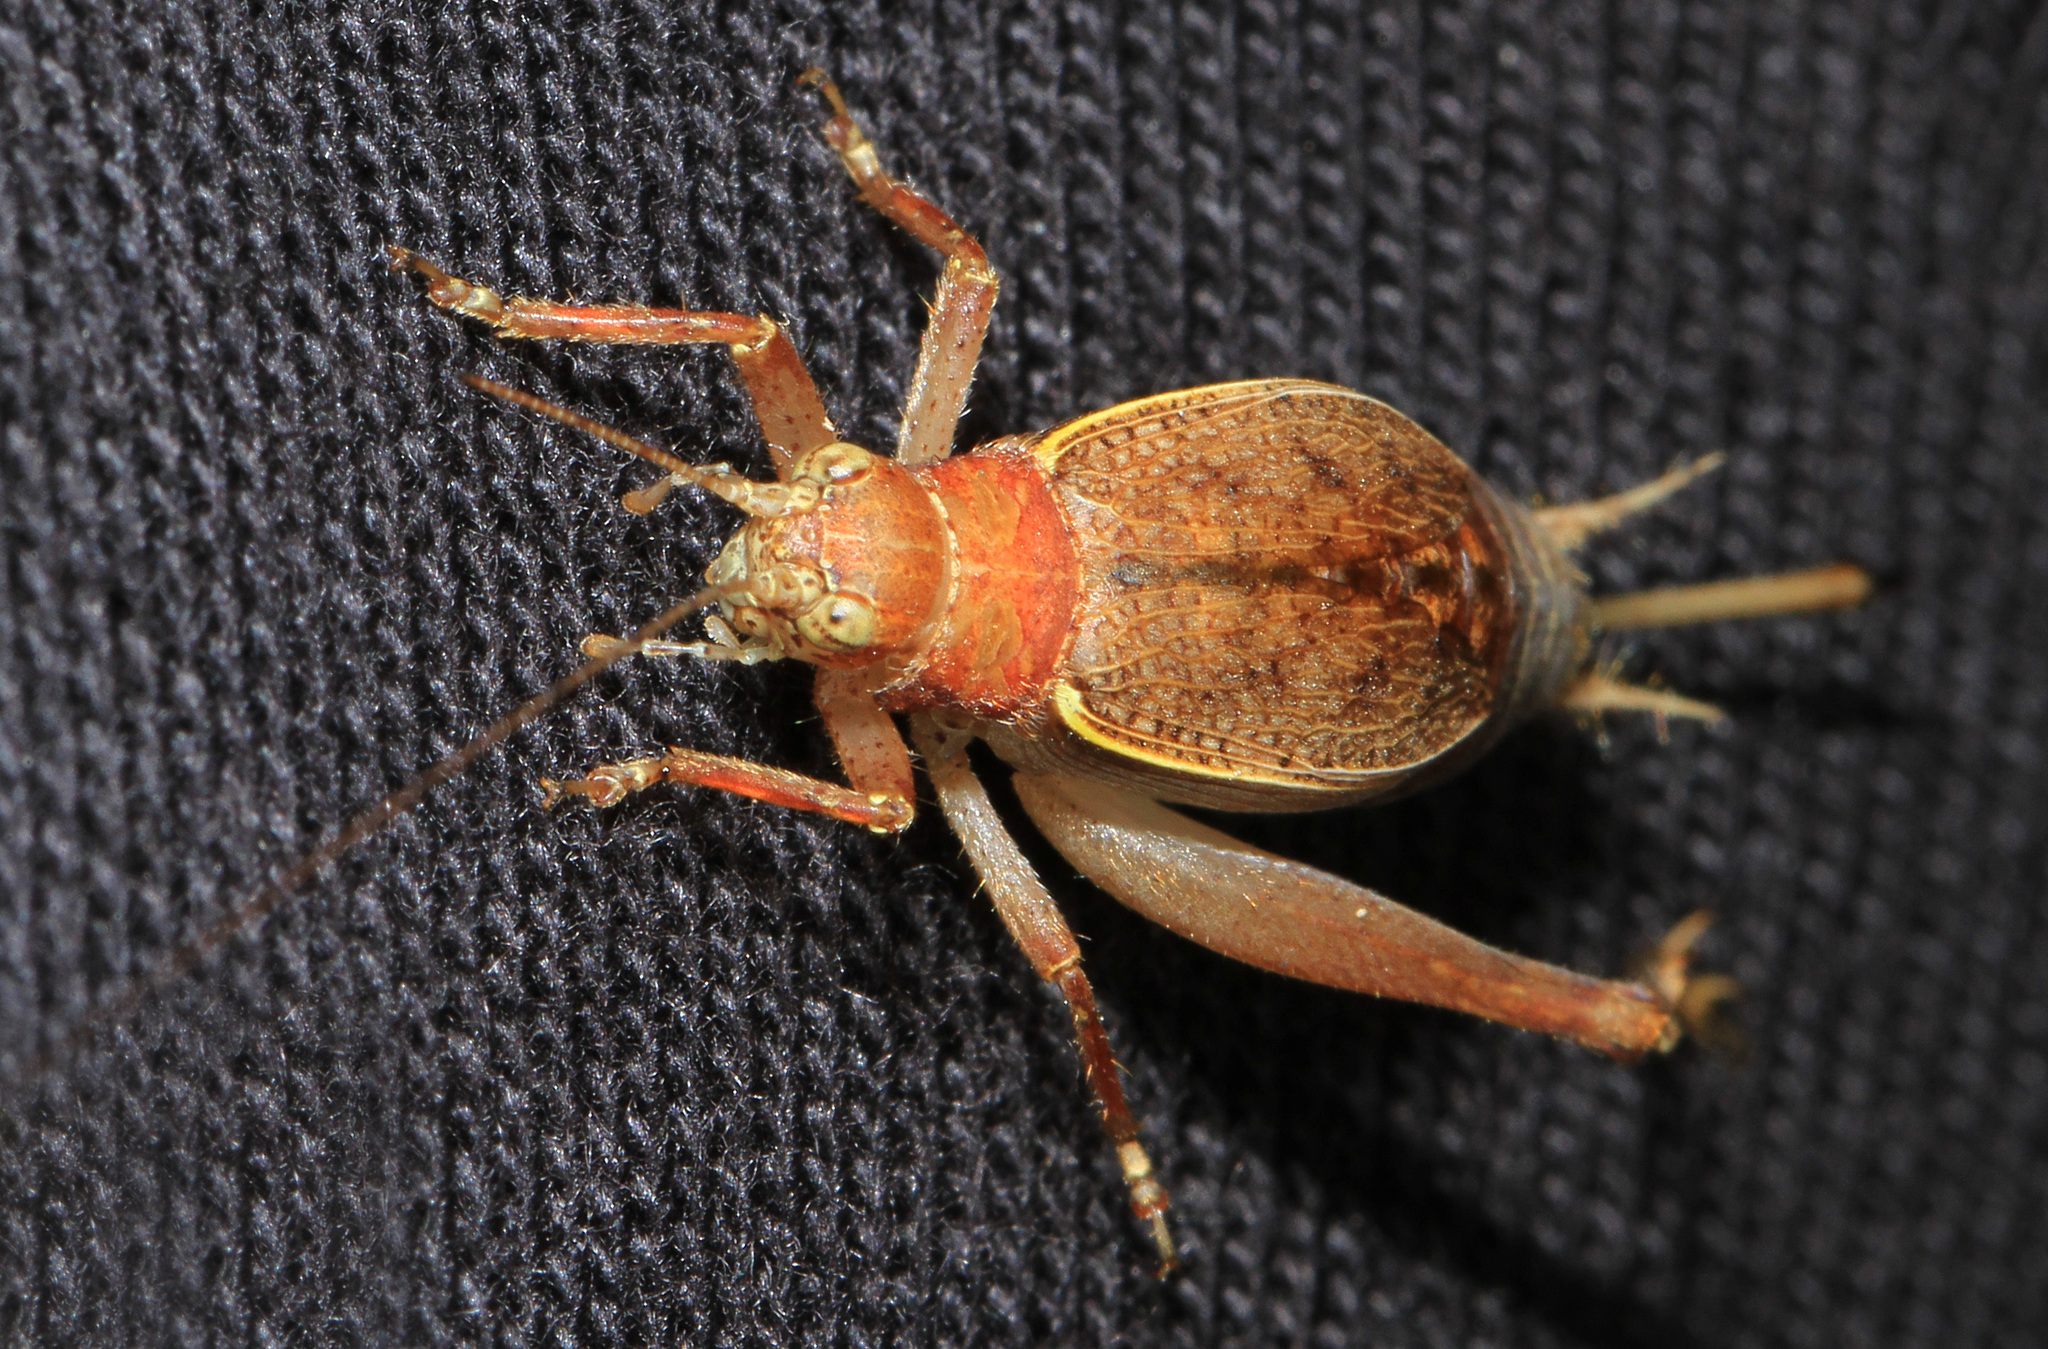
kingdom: Animalia
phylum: Arthropoda
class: Insecta
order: Orthoptera
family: Gryllidae
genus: Hapithus
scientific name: Hapithus agitator
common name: Restless bush cricket
